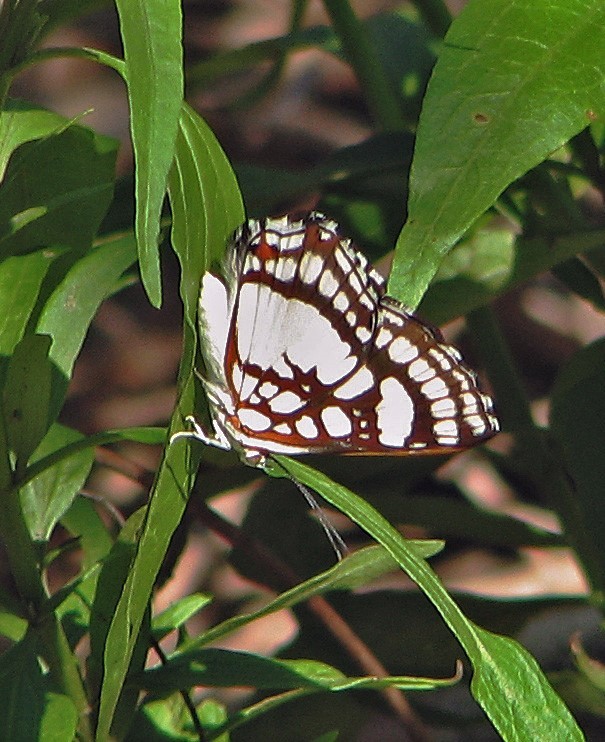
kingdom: Animalia
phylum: Arthropoda
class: Insecta
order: Lepidoptera
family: Riodinidae
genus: Ariconias
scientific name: Ariconias glaphyra
